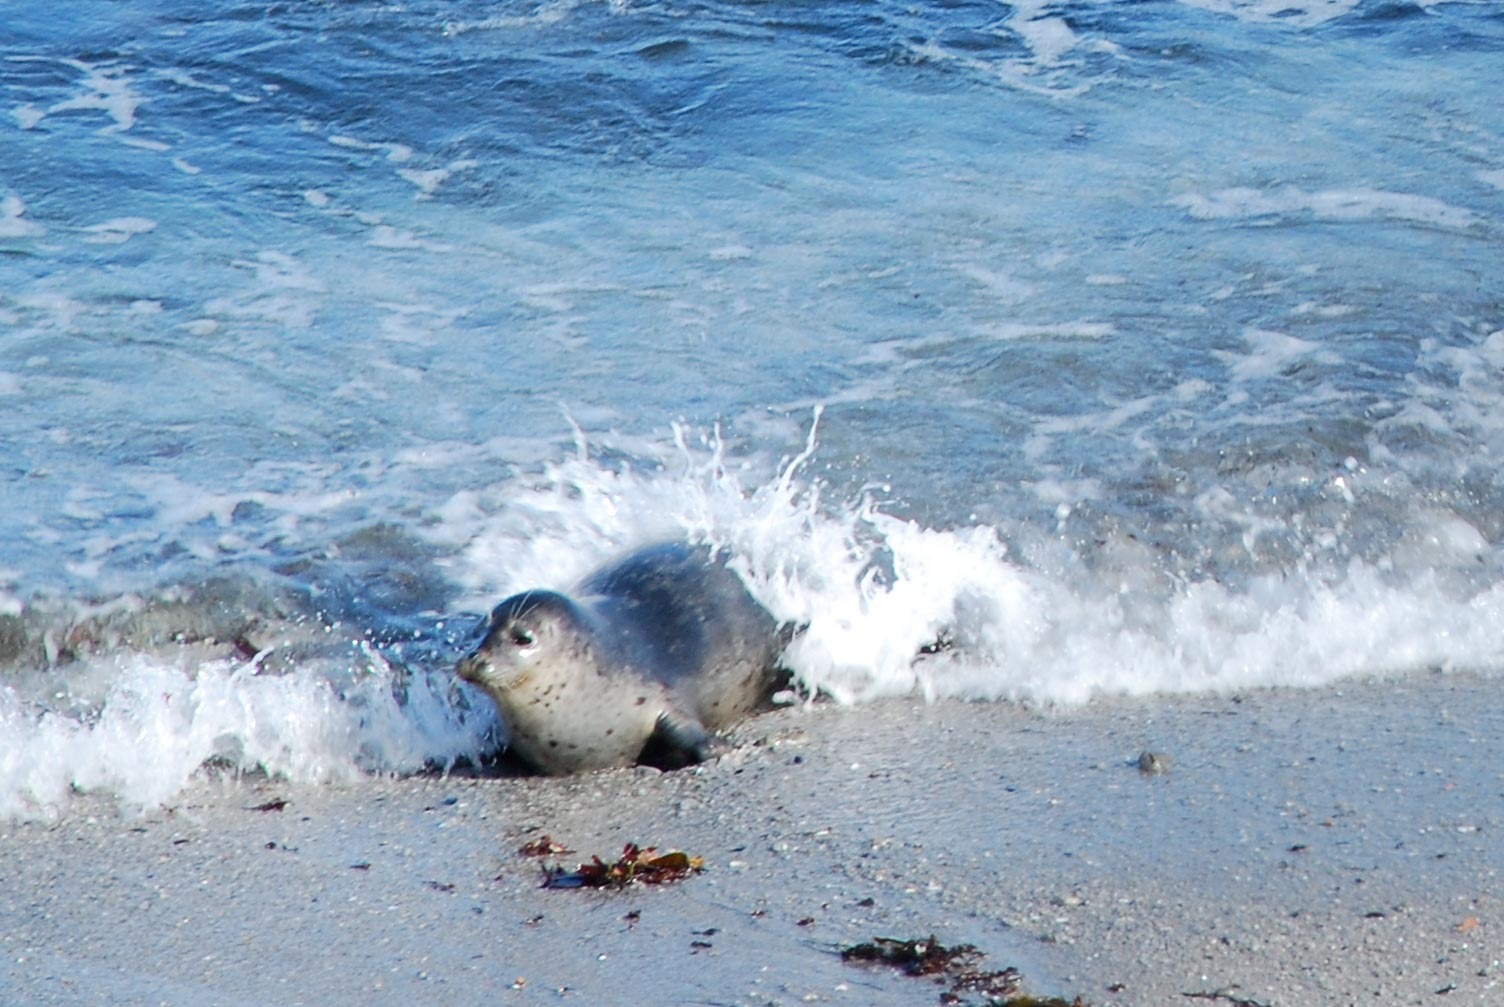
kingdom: Animalia
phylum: Chordata
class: Mammalia
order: Carnivora
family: Phocidae
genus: Phoca
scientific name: Phoca vitulina
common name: Harbor seal
